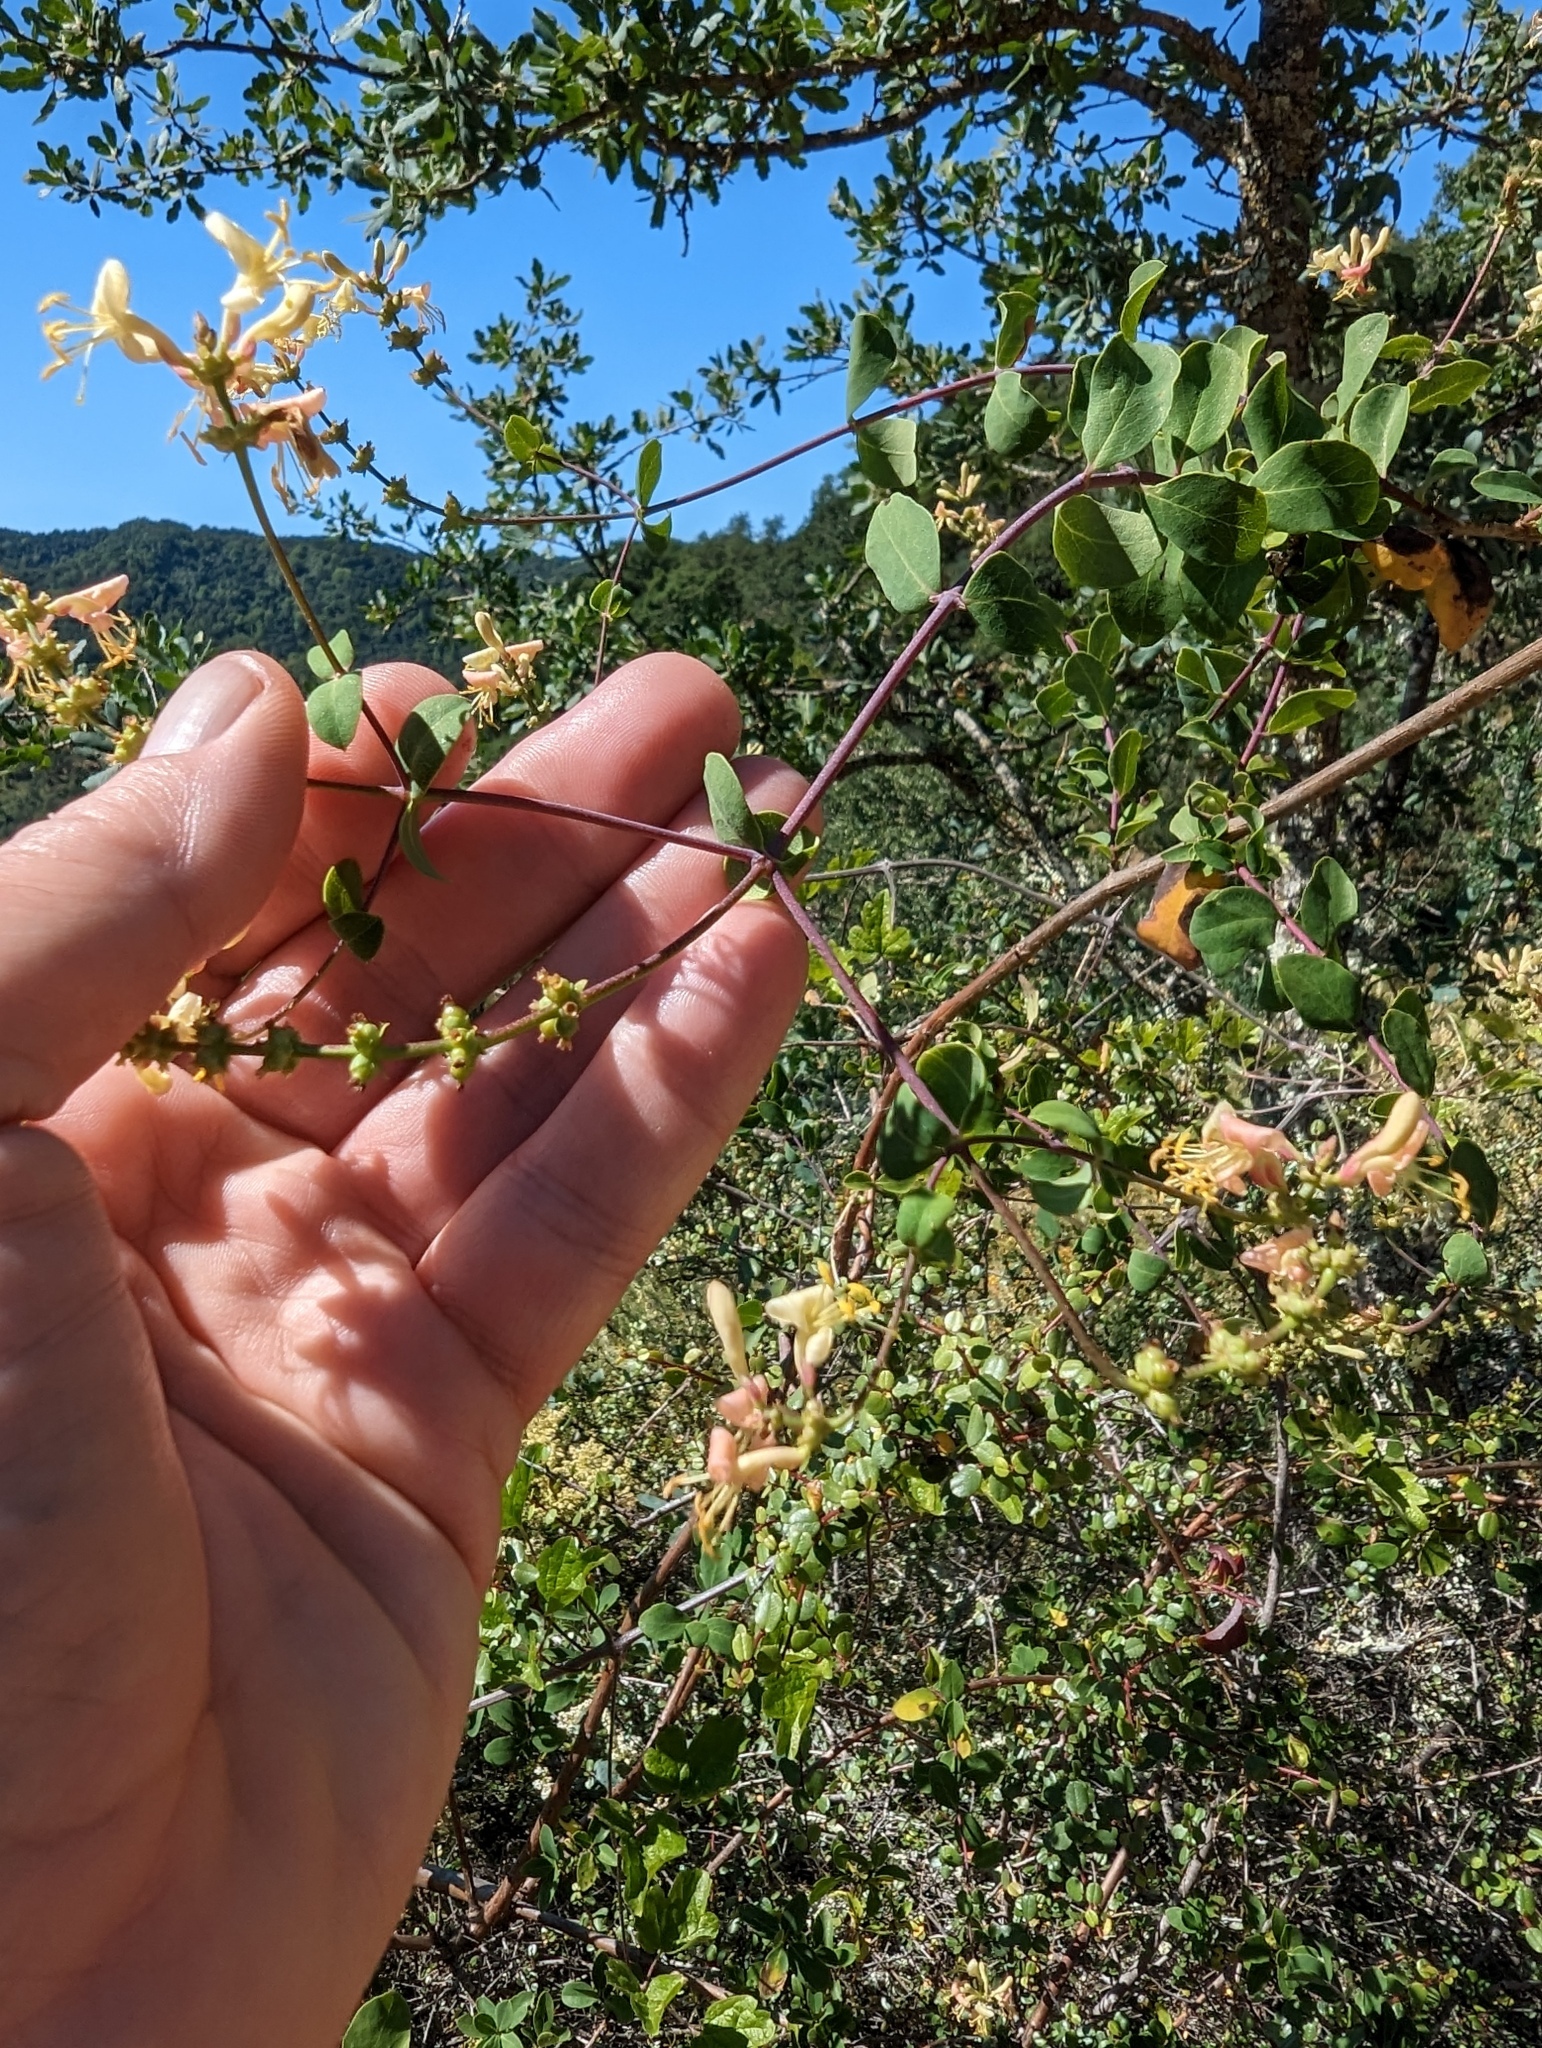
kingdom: Plantae
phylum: Tracheophyta
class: Magnoliopsida
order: Dipsacales
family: Caprifoliaceae
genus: Lonicera
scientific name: Lonicera subspicata
